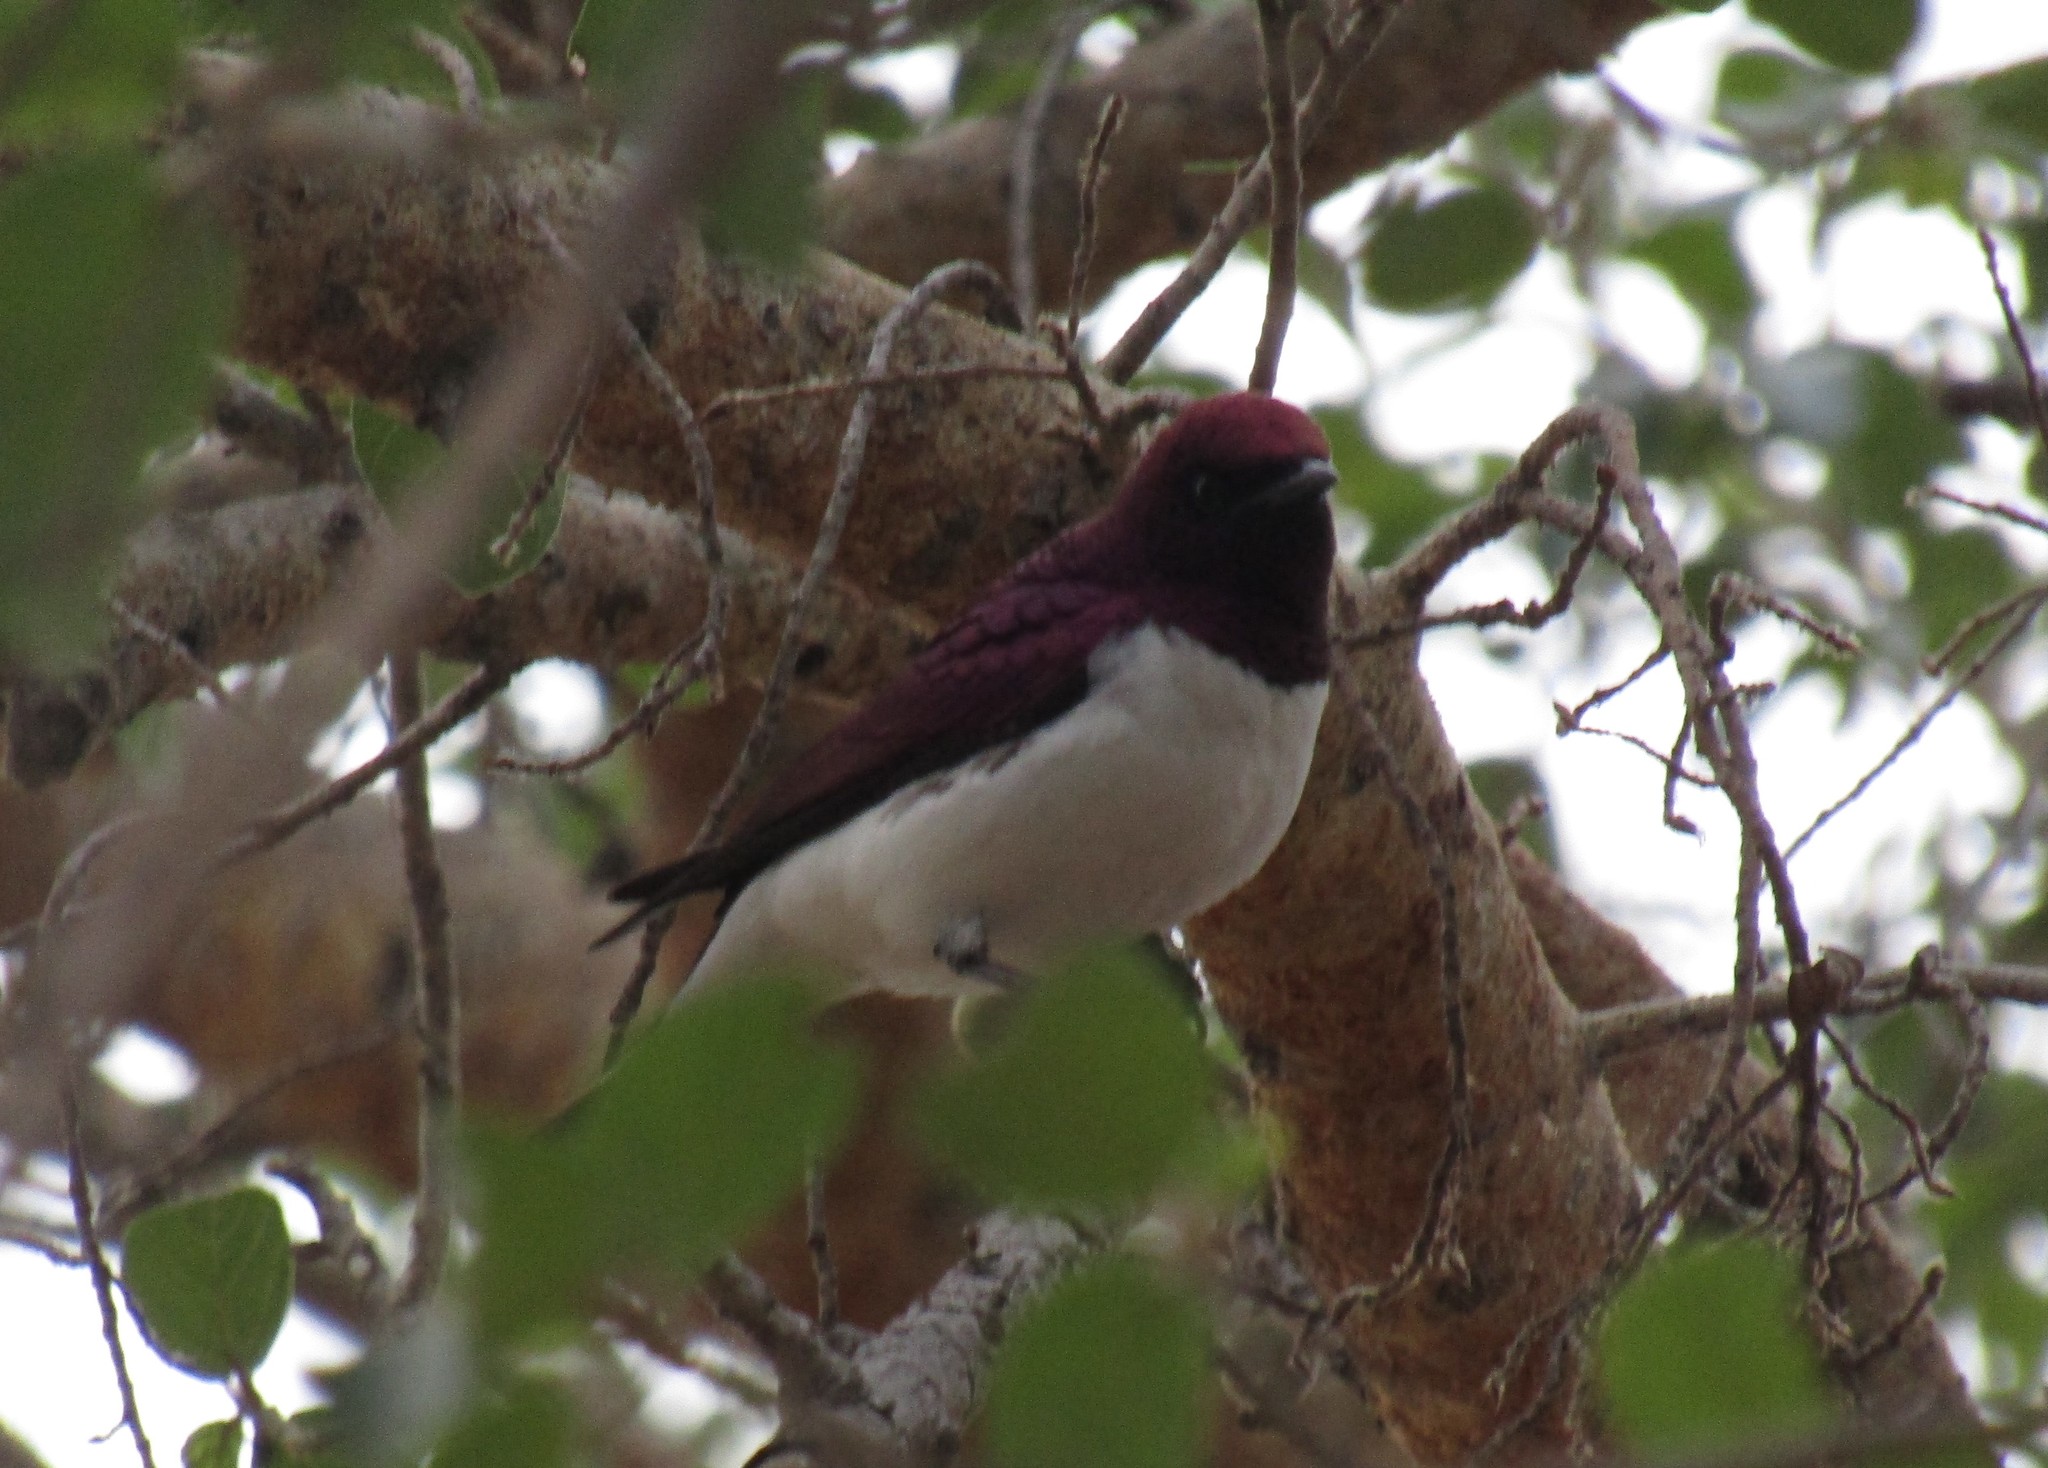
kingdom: Animalia
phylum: Chordata
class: Aves
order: Passeriformes
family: Sturnidae
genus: Cinnyricinclus
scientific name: Cinnyricinclus leucogaster
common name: Violet-backed starling
